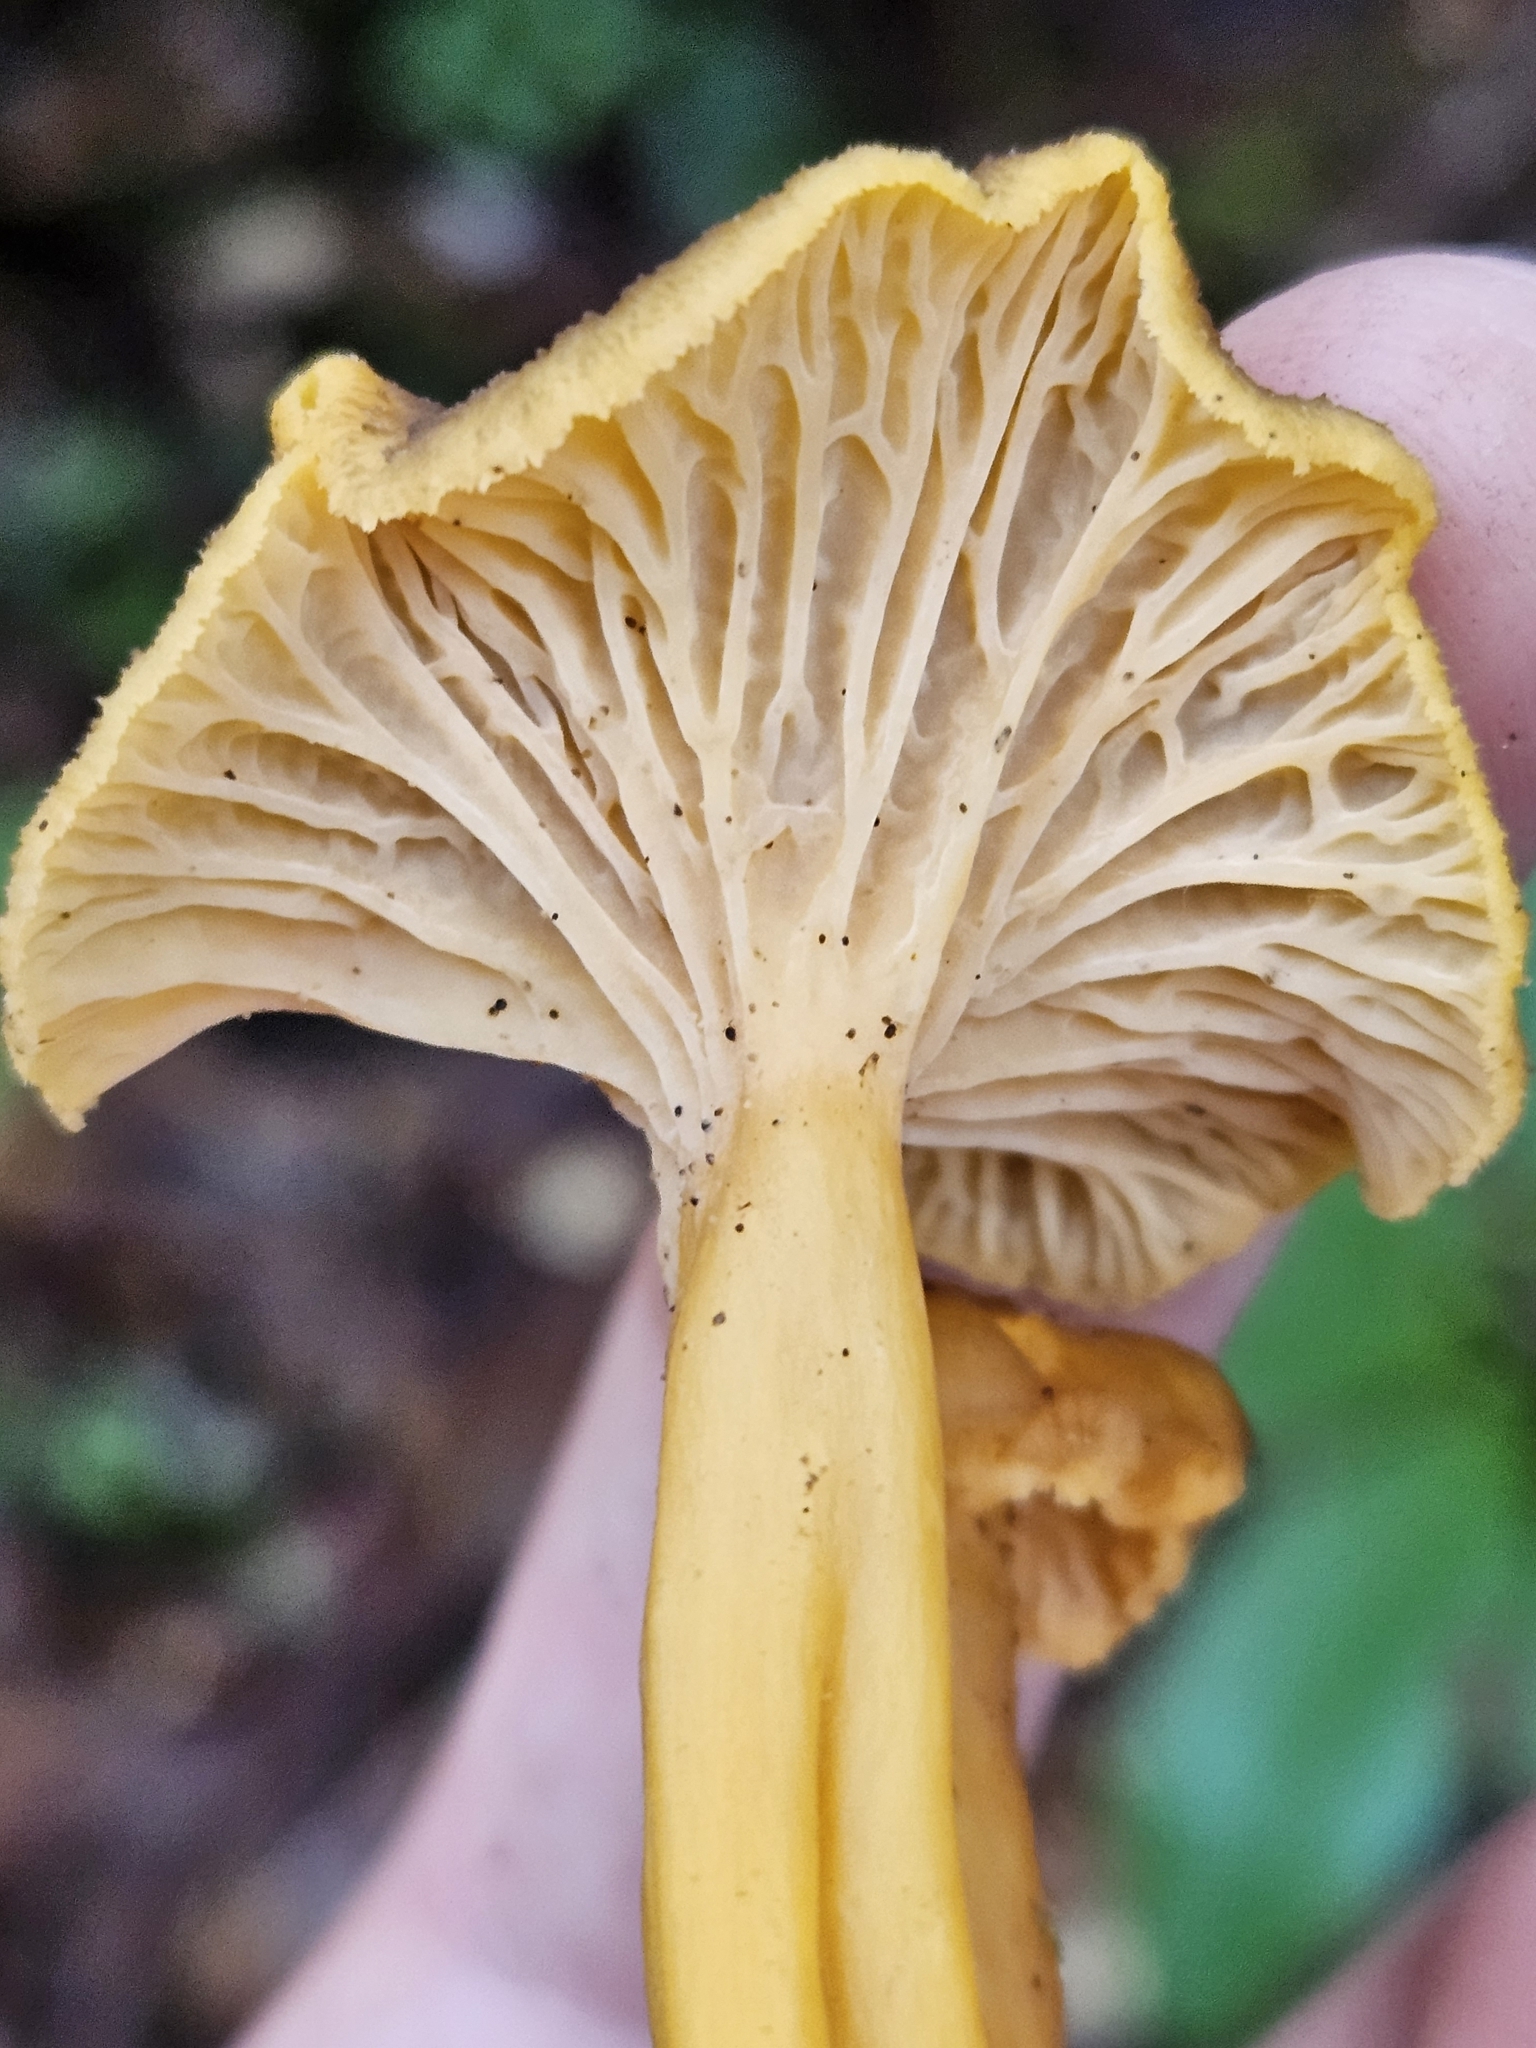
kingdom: Fungi
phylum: Basidiomycota
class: Agaricomycetes
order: Cantharellales
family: Hydnaceae
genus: Craterellus
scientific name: Craterellus tubaeformis
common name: Yellowfoot
